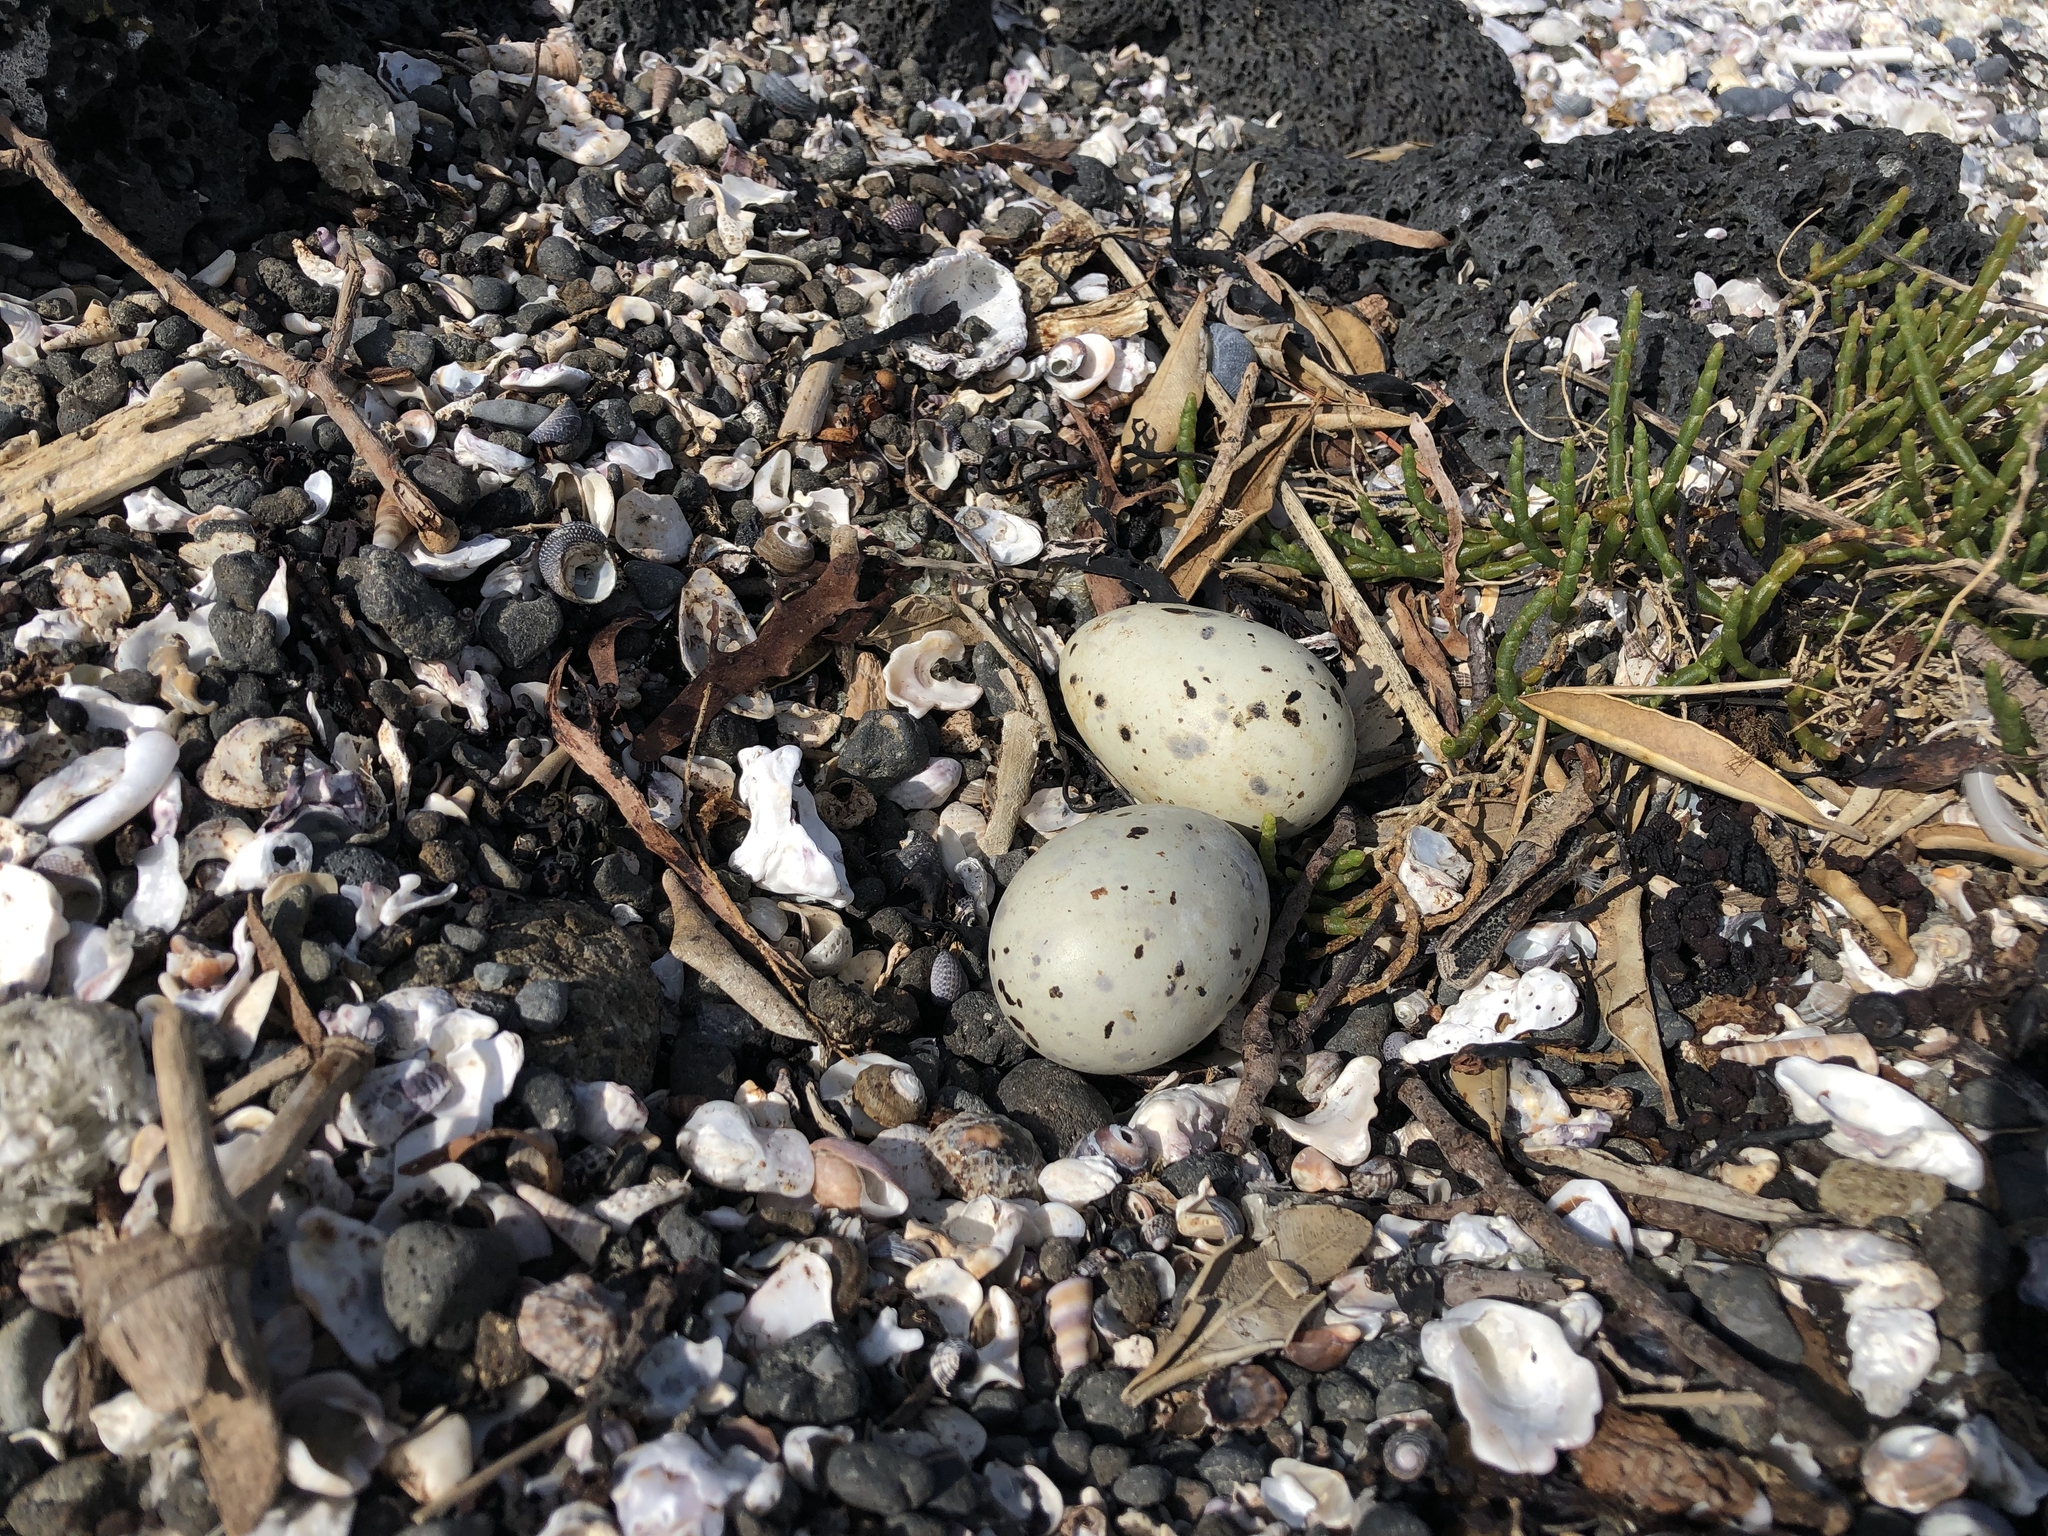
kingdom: Animalia
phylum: Chordata
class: Aves
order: Charadriiformes
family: Laridae
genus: Hydroprogne
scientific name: Hydroprogne caspia
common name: Caspian tern
